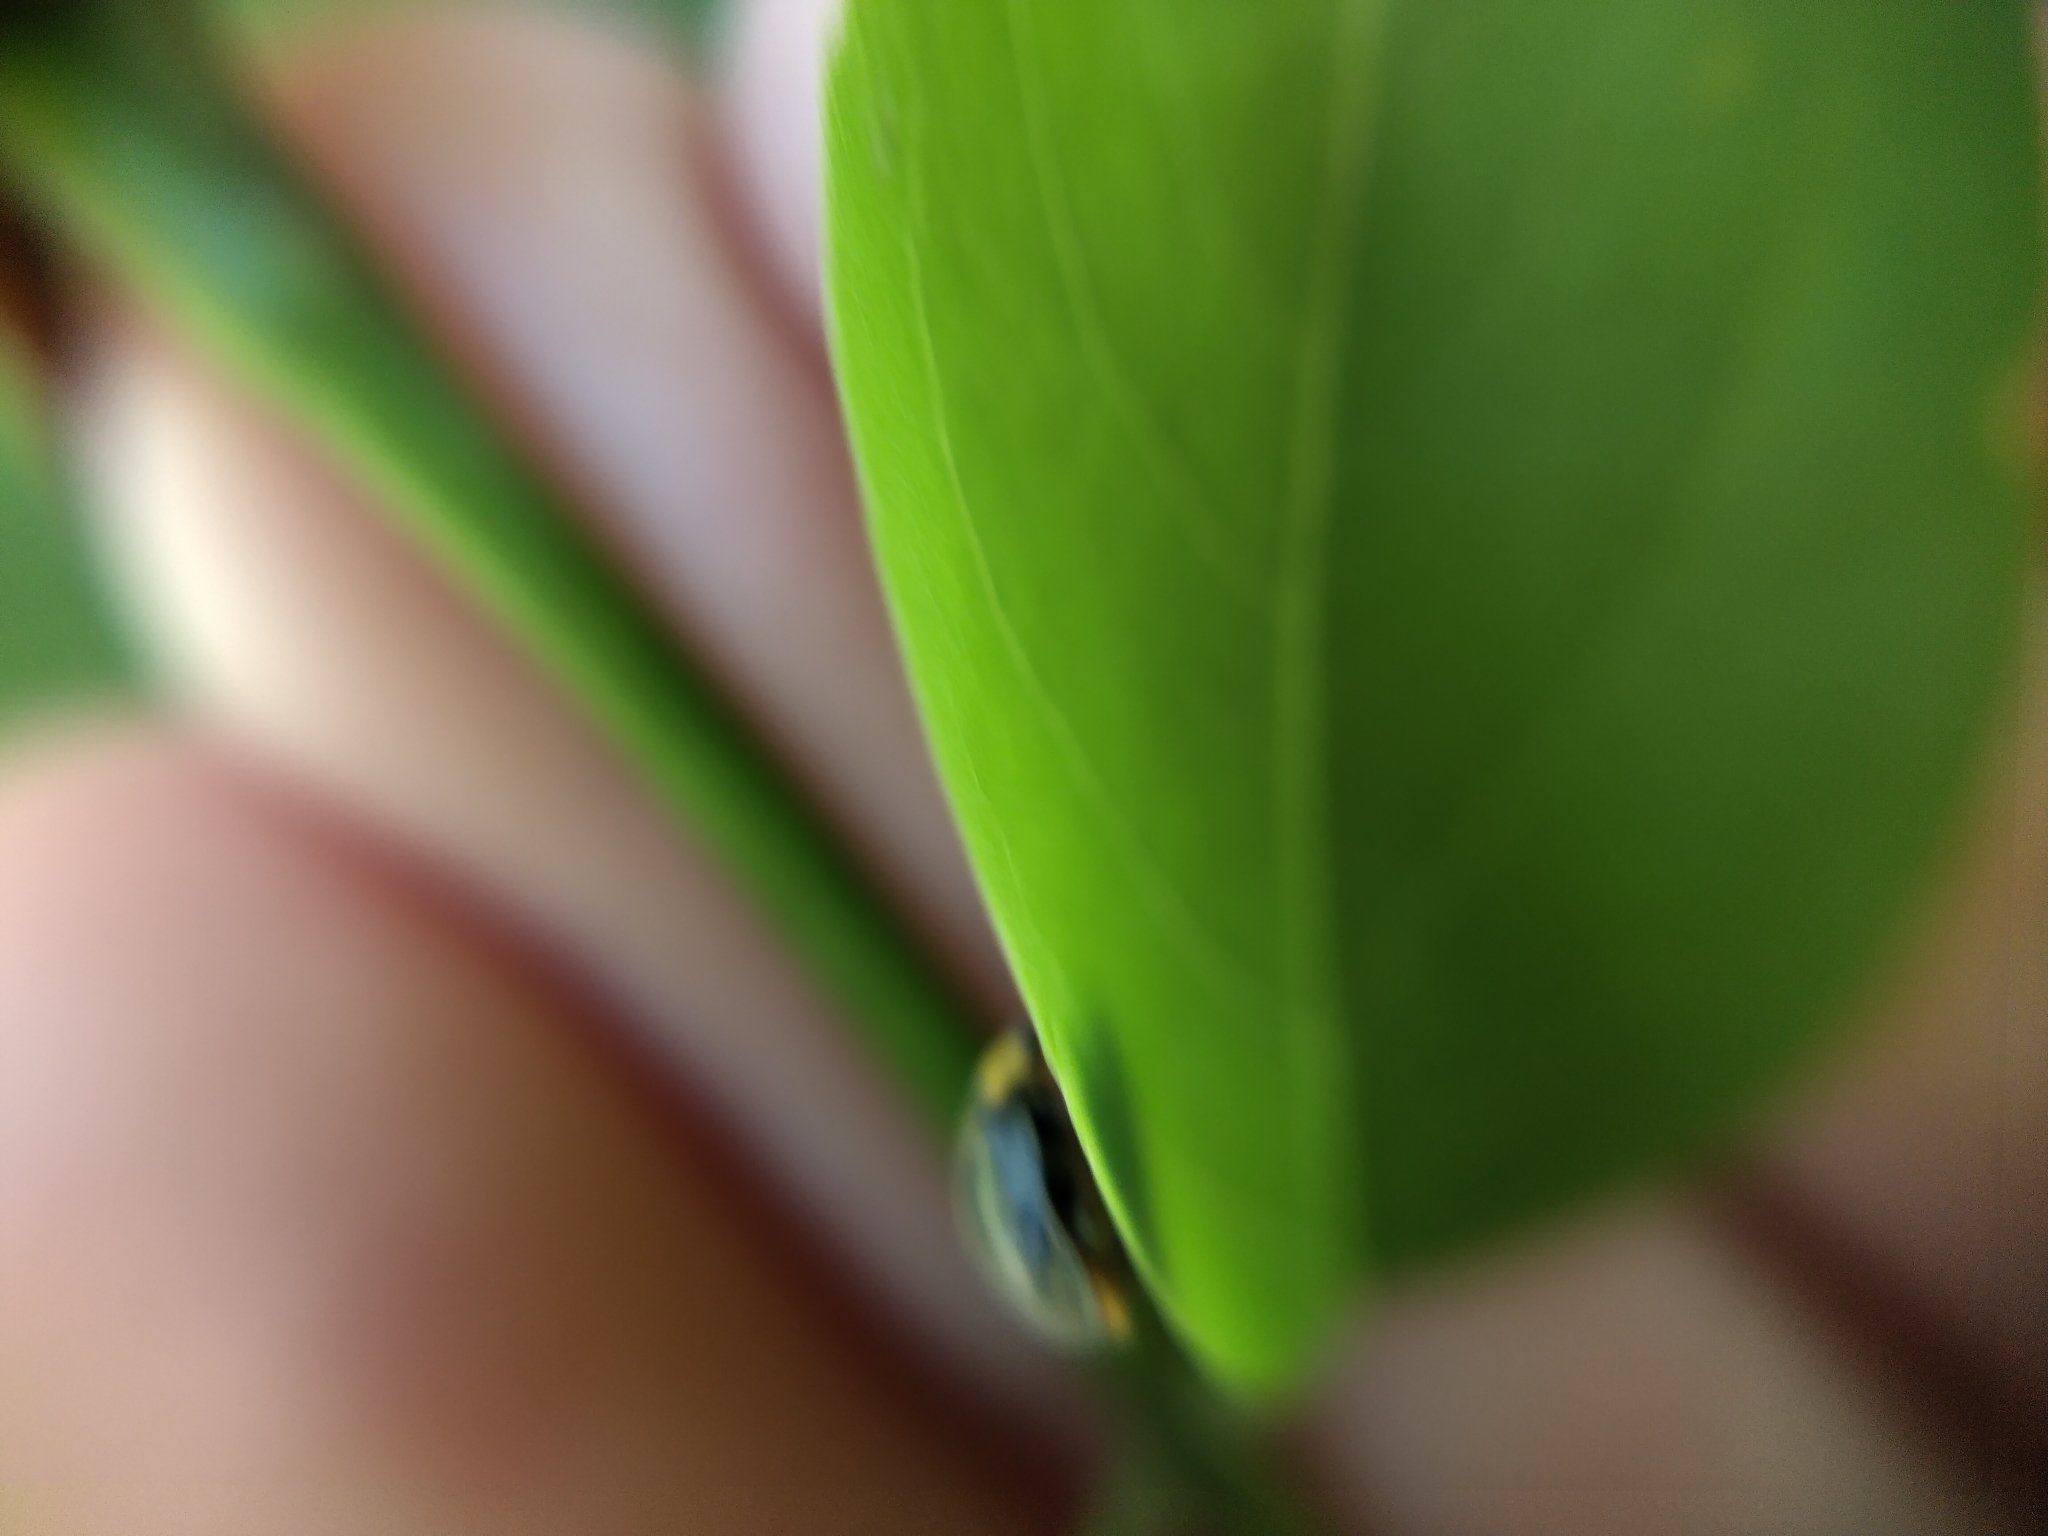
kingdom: Animalia
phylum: Arthropoda
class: Insecta
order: Coleoptera
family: Coccinellidae
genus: Scymnodes
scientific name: Scymnodes lividigaster
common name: Yellowshouldered lady beetle
